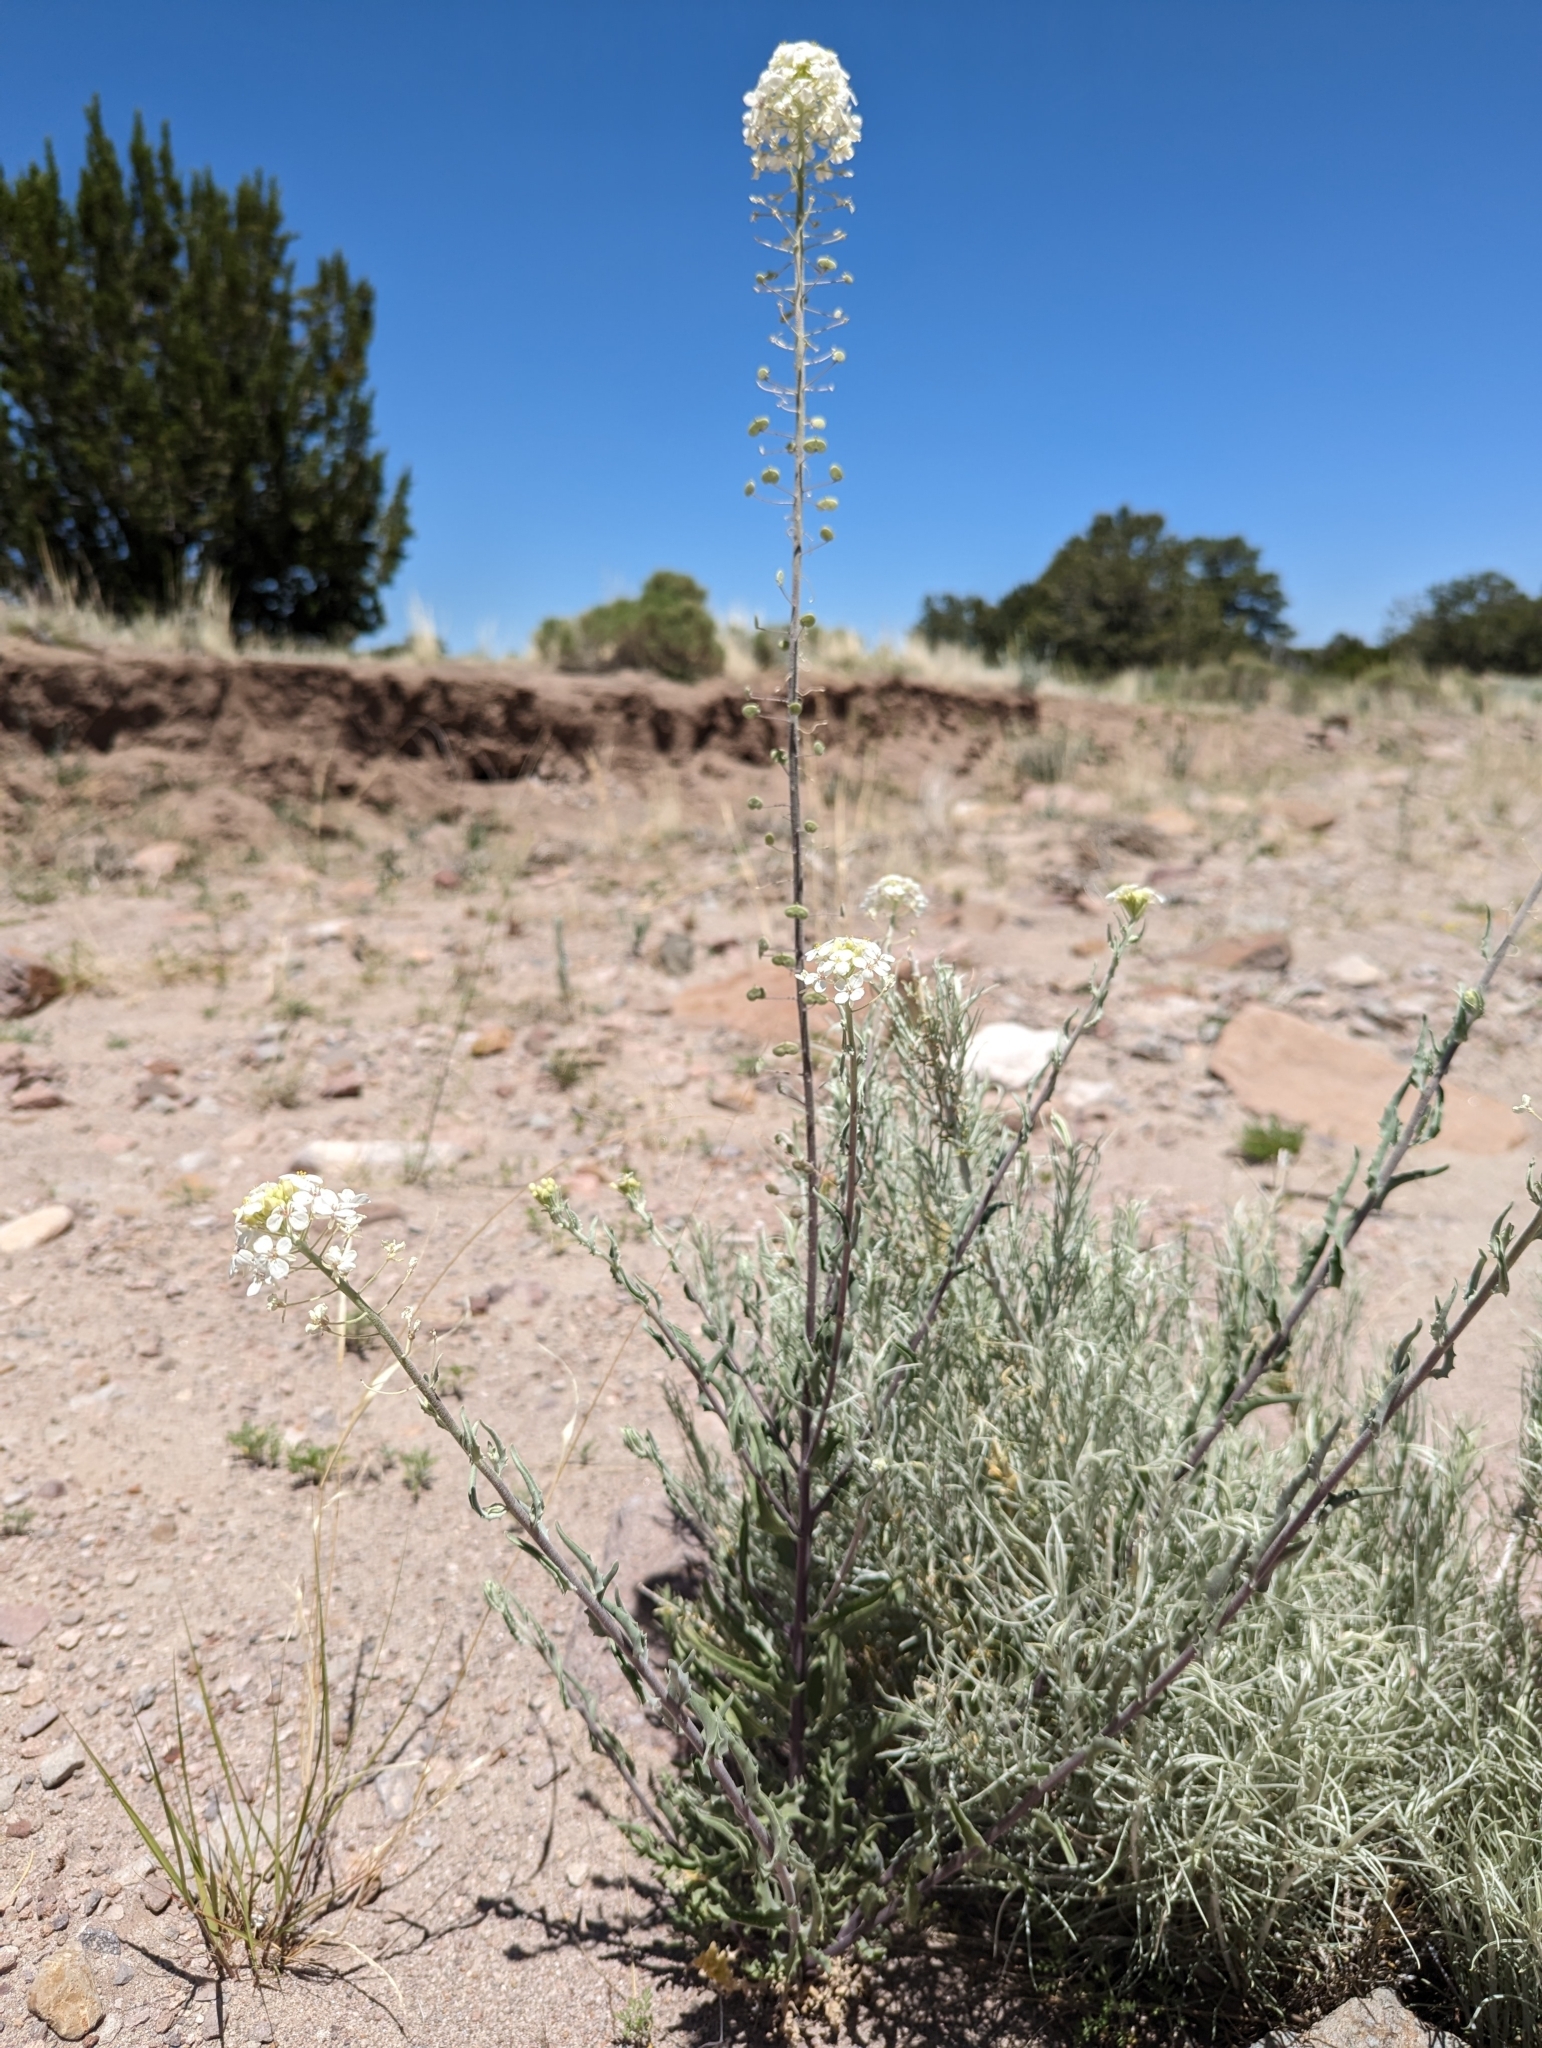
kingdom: Plantae
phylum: Tracheophyta
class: Magnoliopsida
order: Brassicales
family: Brassicaceae
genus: Dimorphocarpa
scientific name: Dimorphocarpa wislizenii
